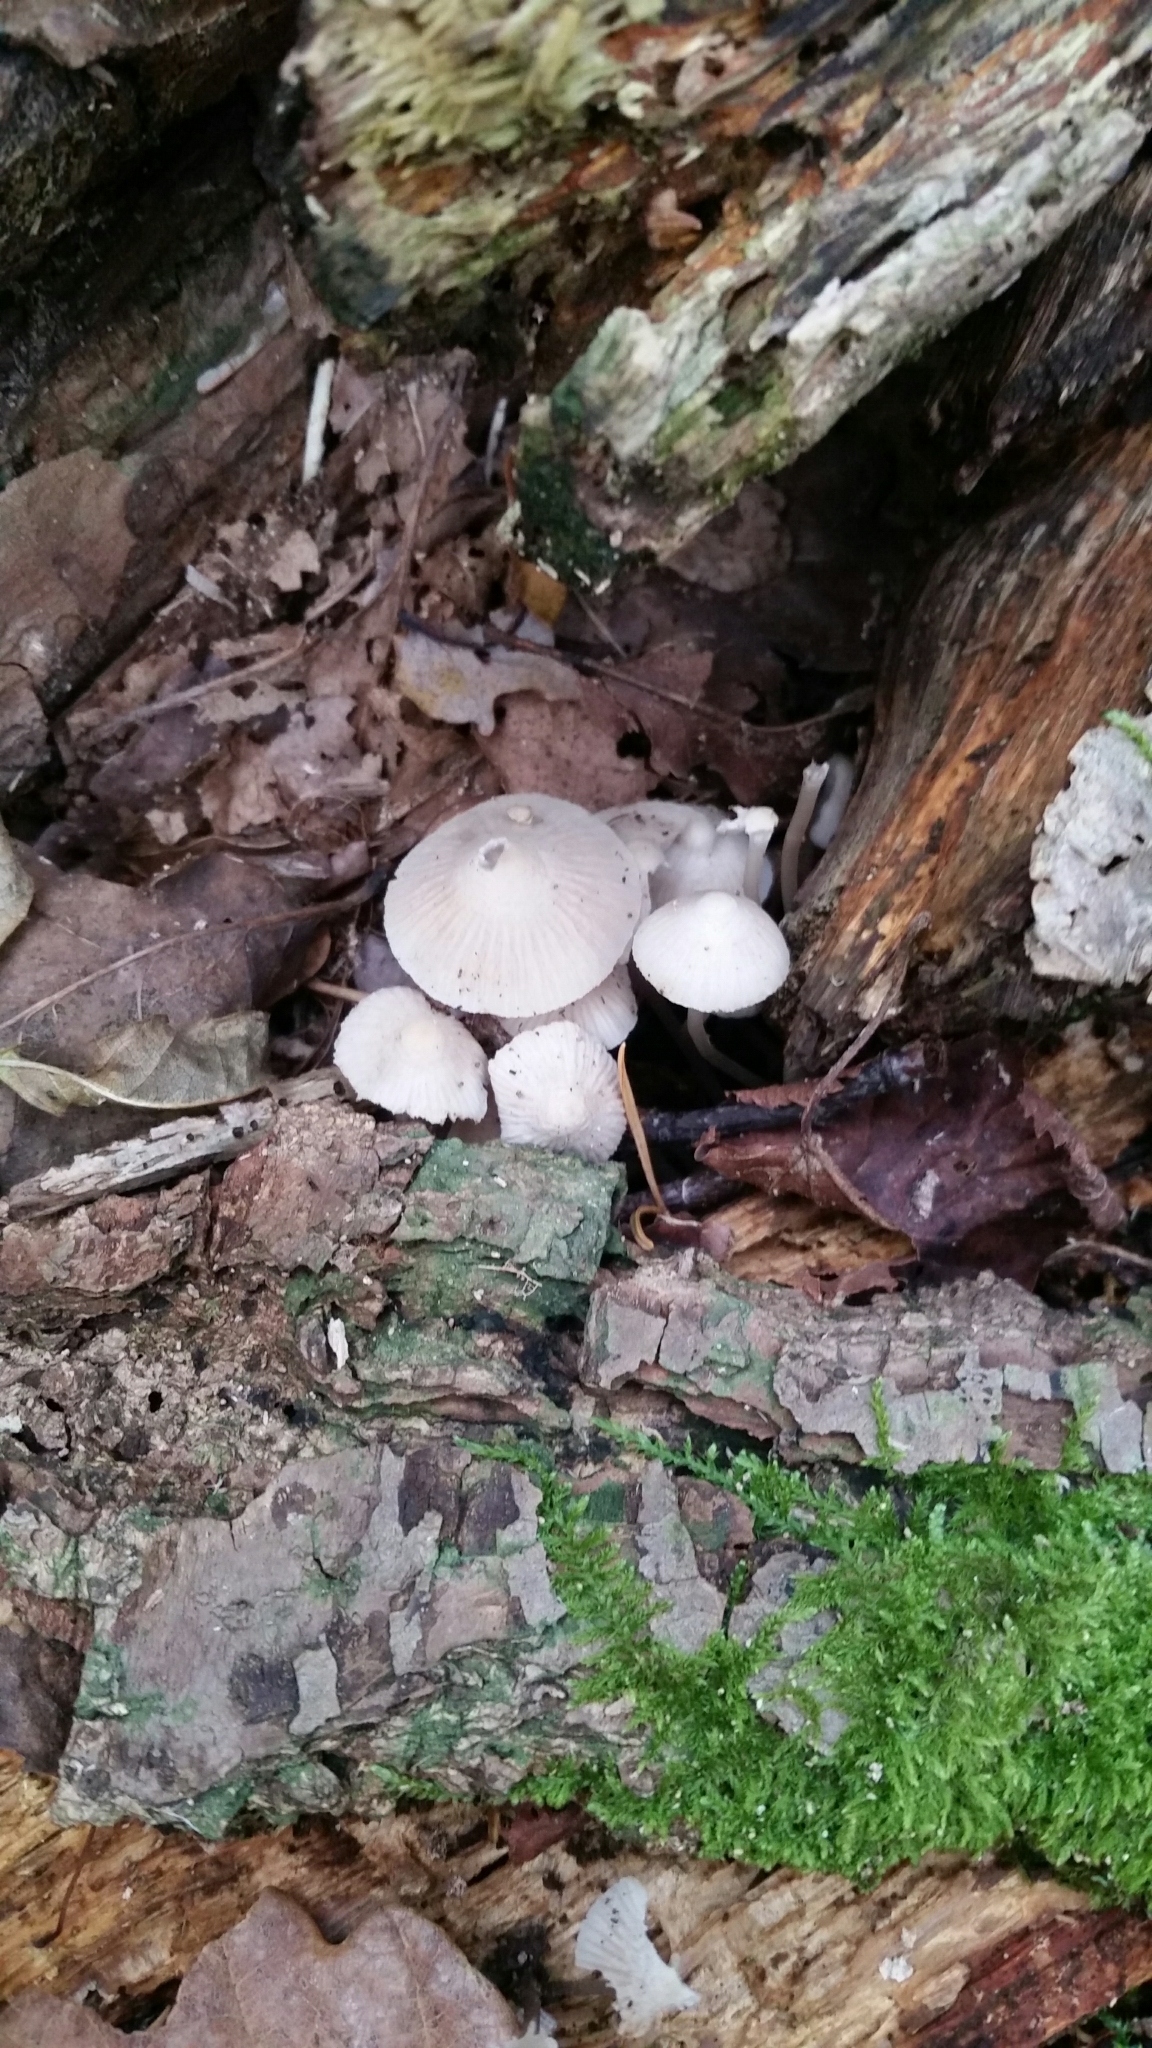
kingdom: Fungi
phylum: Basidiomycota
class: Agaricomycetes
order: Agaricales
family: Mycenaceae
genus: Mycena
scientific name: Mycena galericulata
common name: Bonnet mycena
